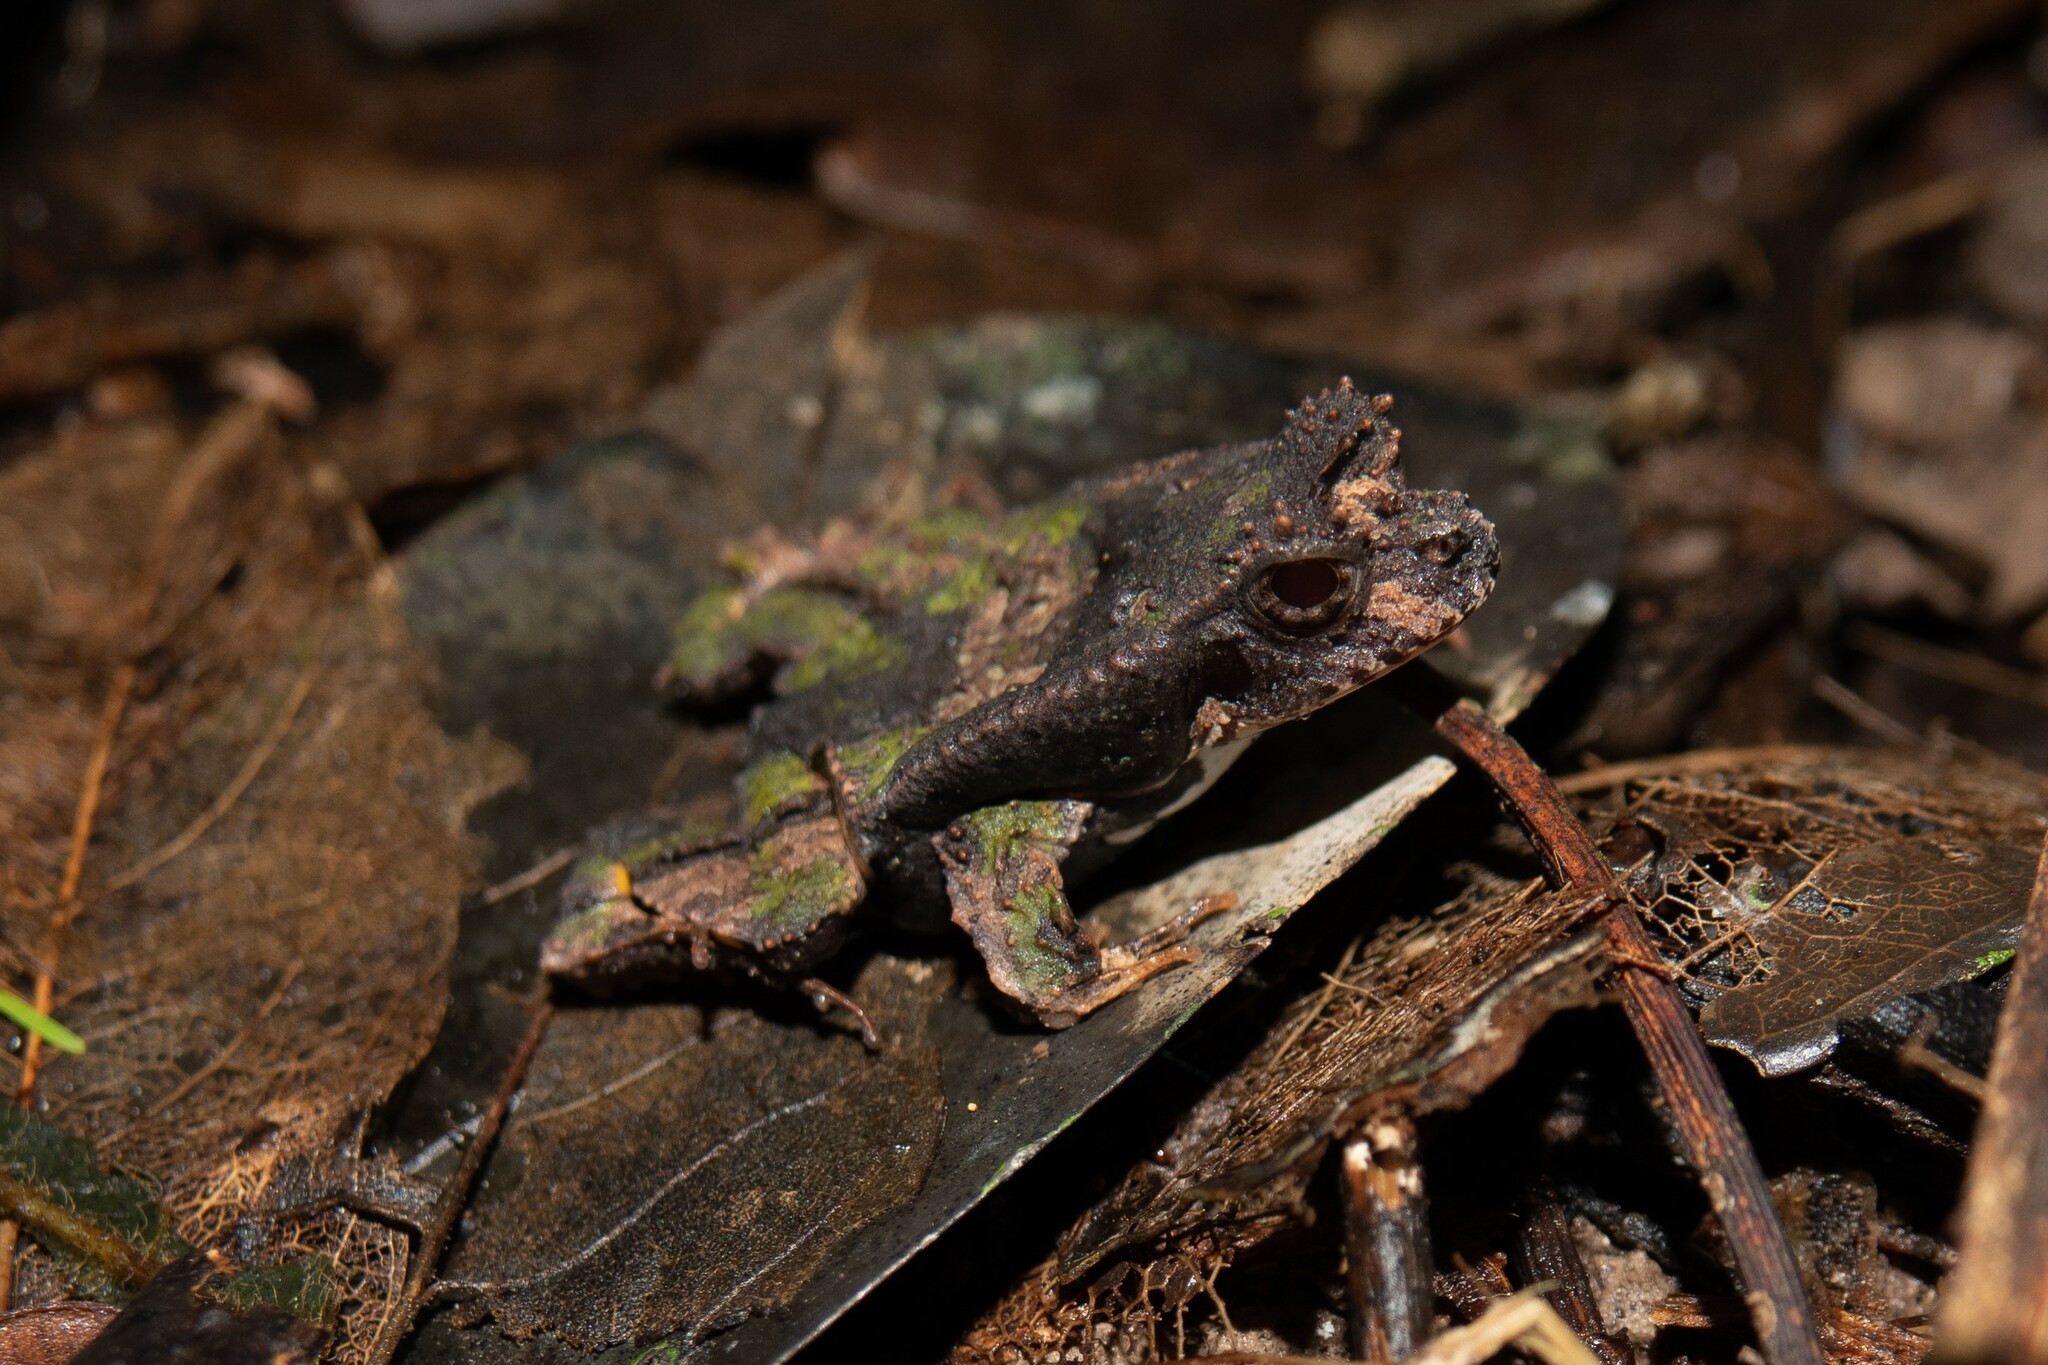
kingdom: Animalia
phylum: Chordata
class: Amphibia
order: Anura
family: Leptodactylidae
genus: Edalorhina
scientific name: Edalorhina perezi
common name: Perez’s snouted frog
